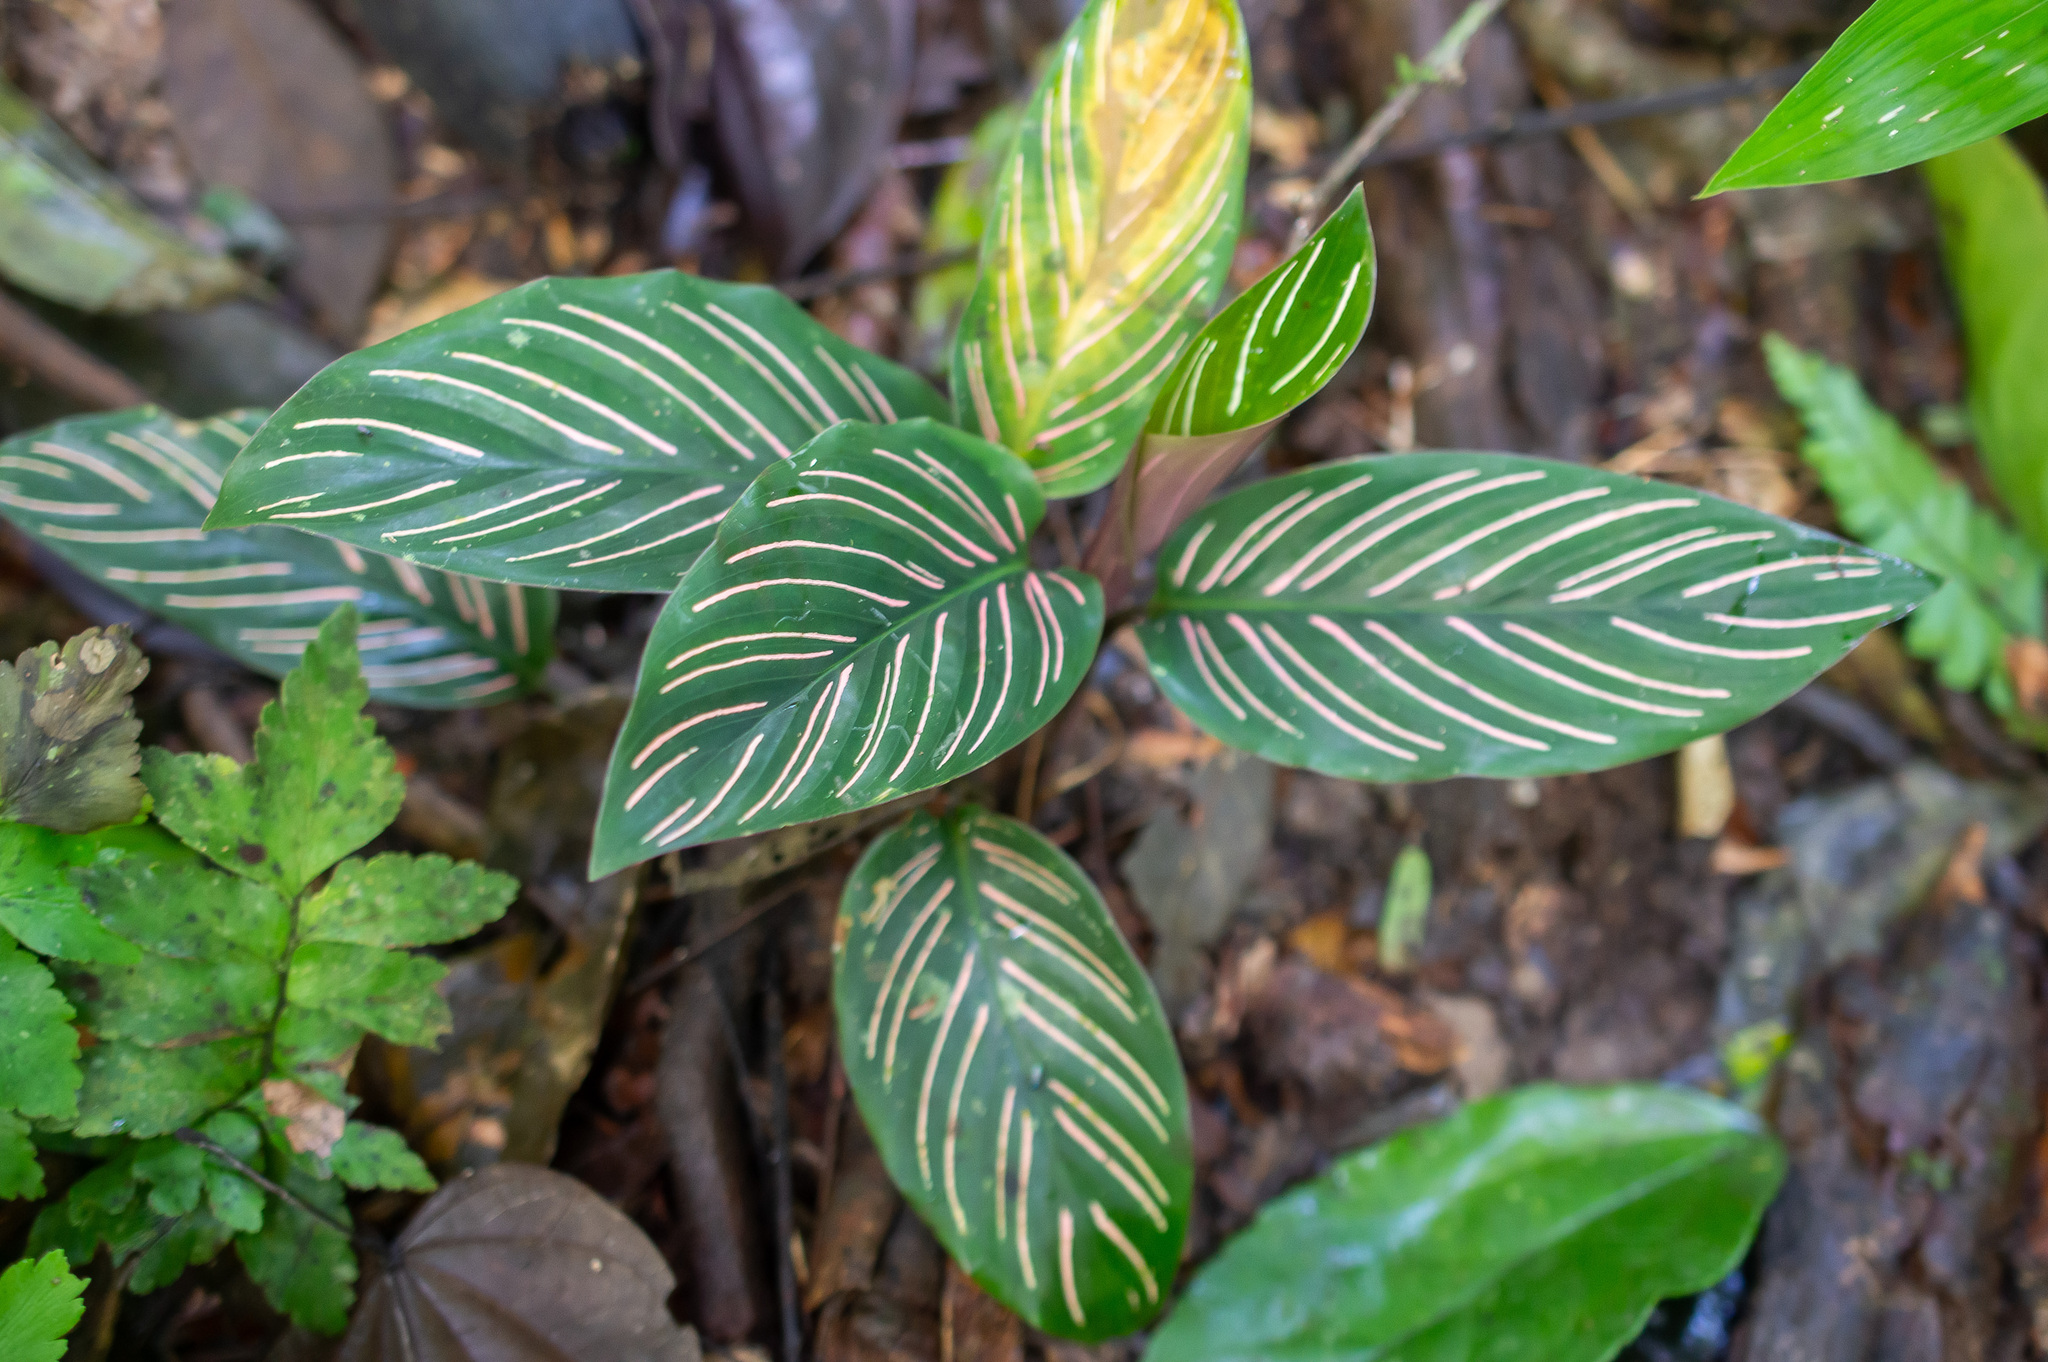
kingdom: Plantae
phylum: Tracheophyta
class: Liliopsida
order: Zingiberales
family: Marantaceae
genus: Goeppertia
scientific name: Goeppertia elliptica
